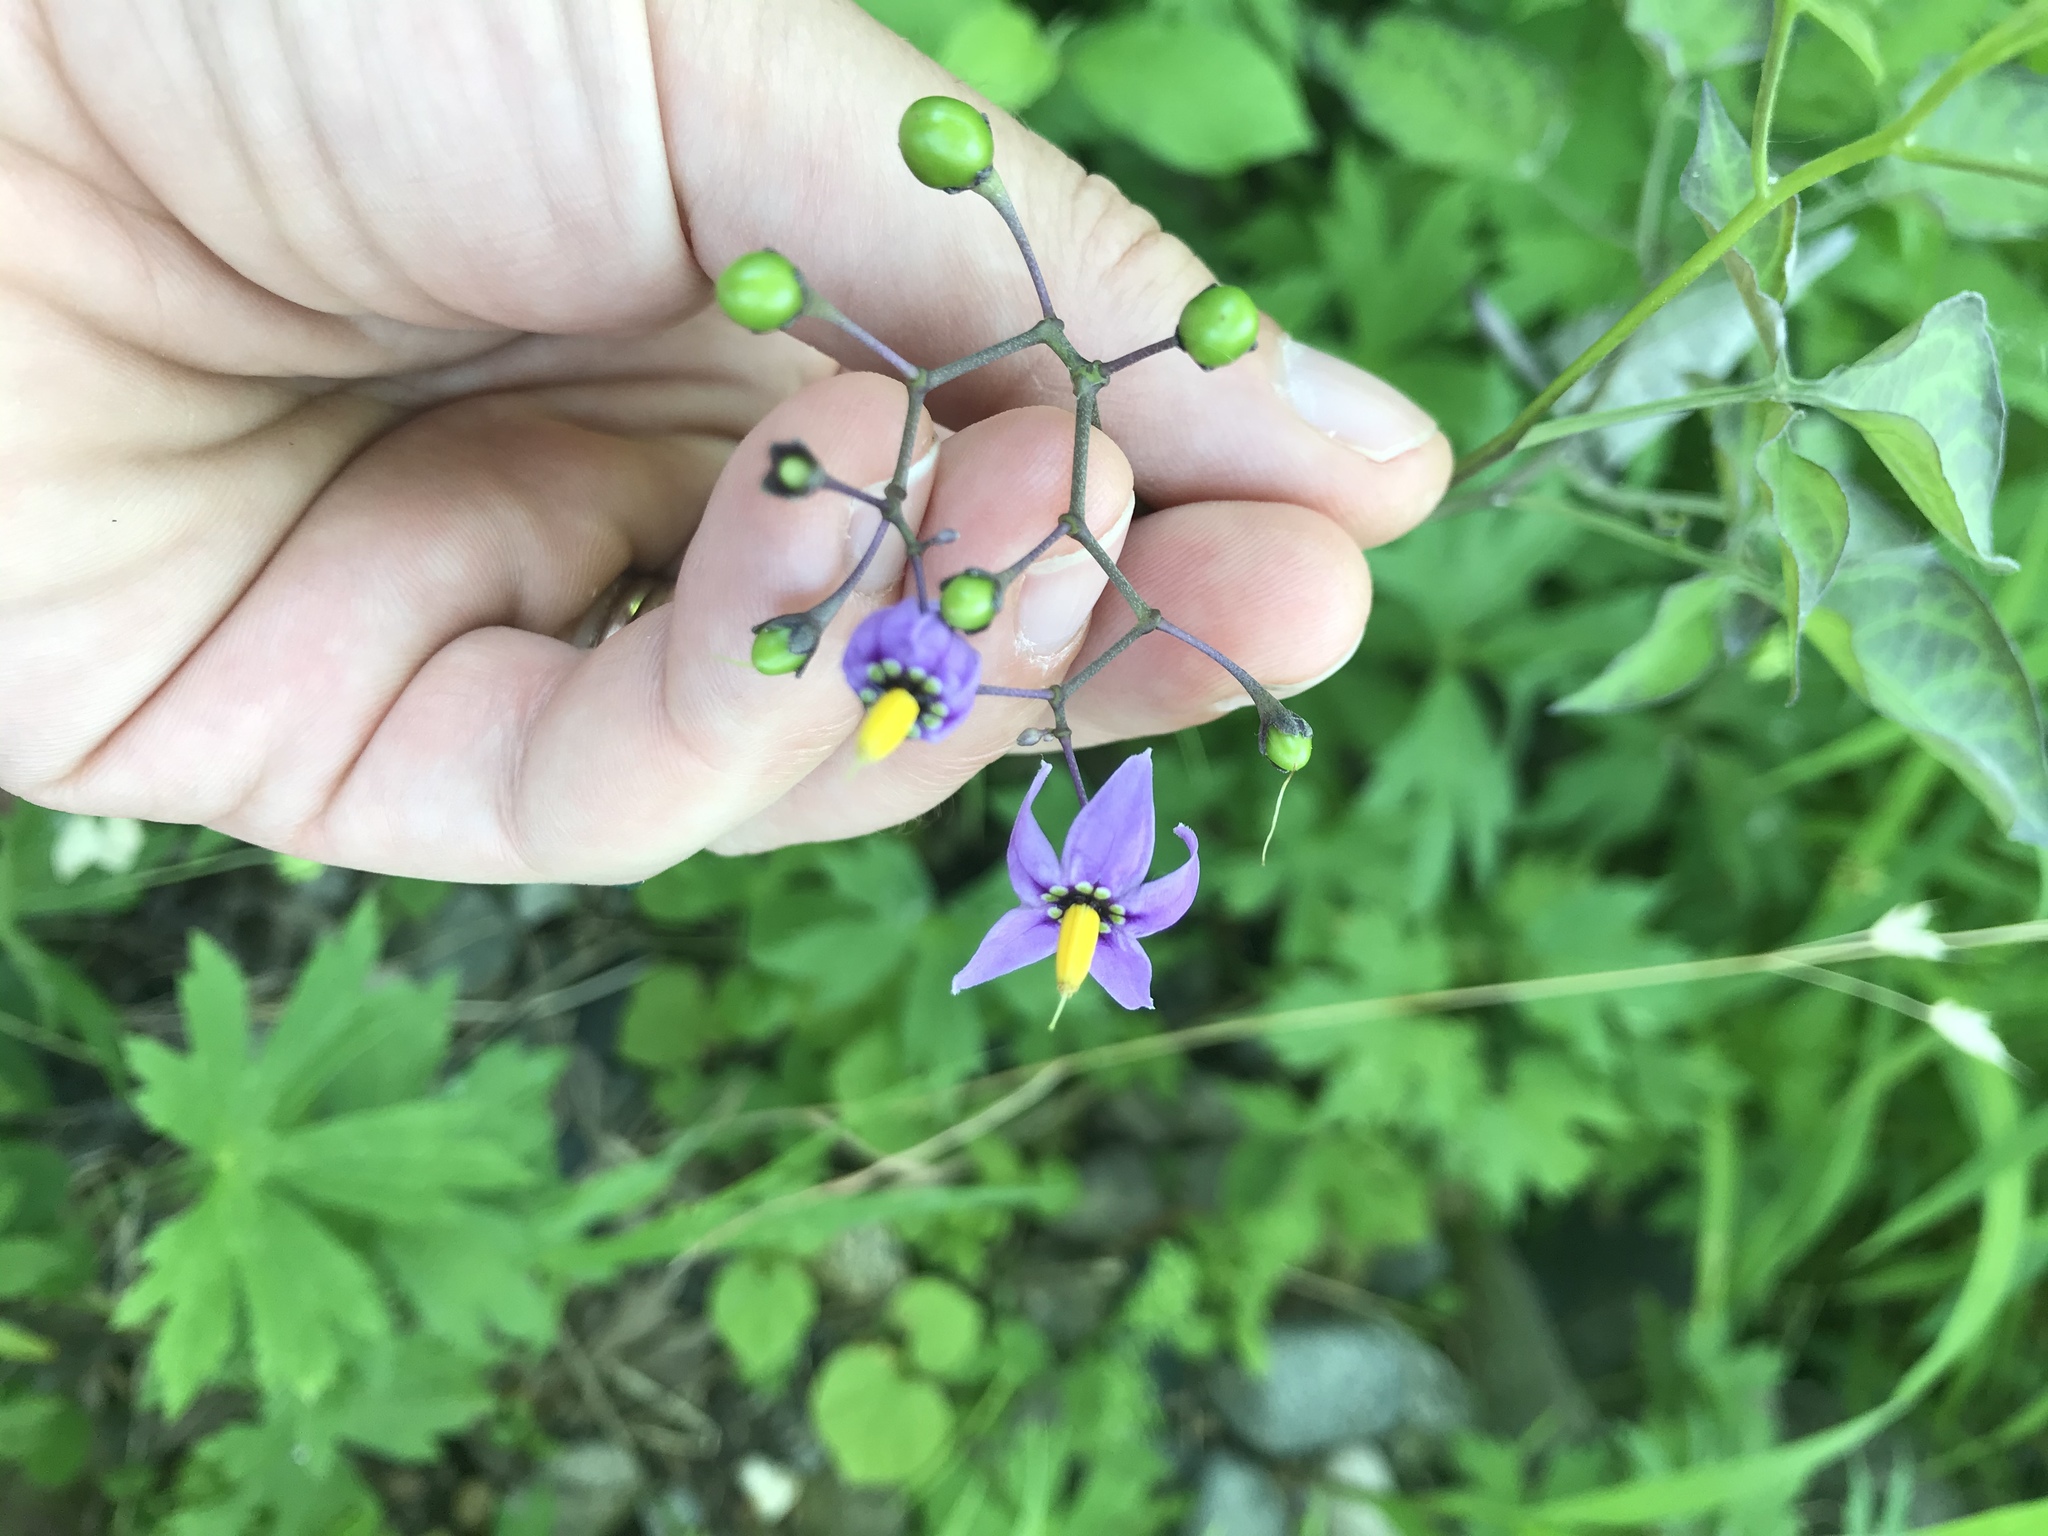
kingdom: Plantae
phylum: Tracheophyta
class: Magnoliopsida
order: Solanales
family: Solanaceae
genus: Solanum
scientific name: Solanum dulcamara
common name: Climbing nightshade
